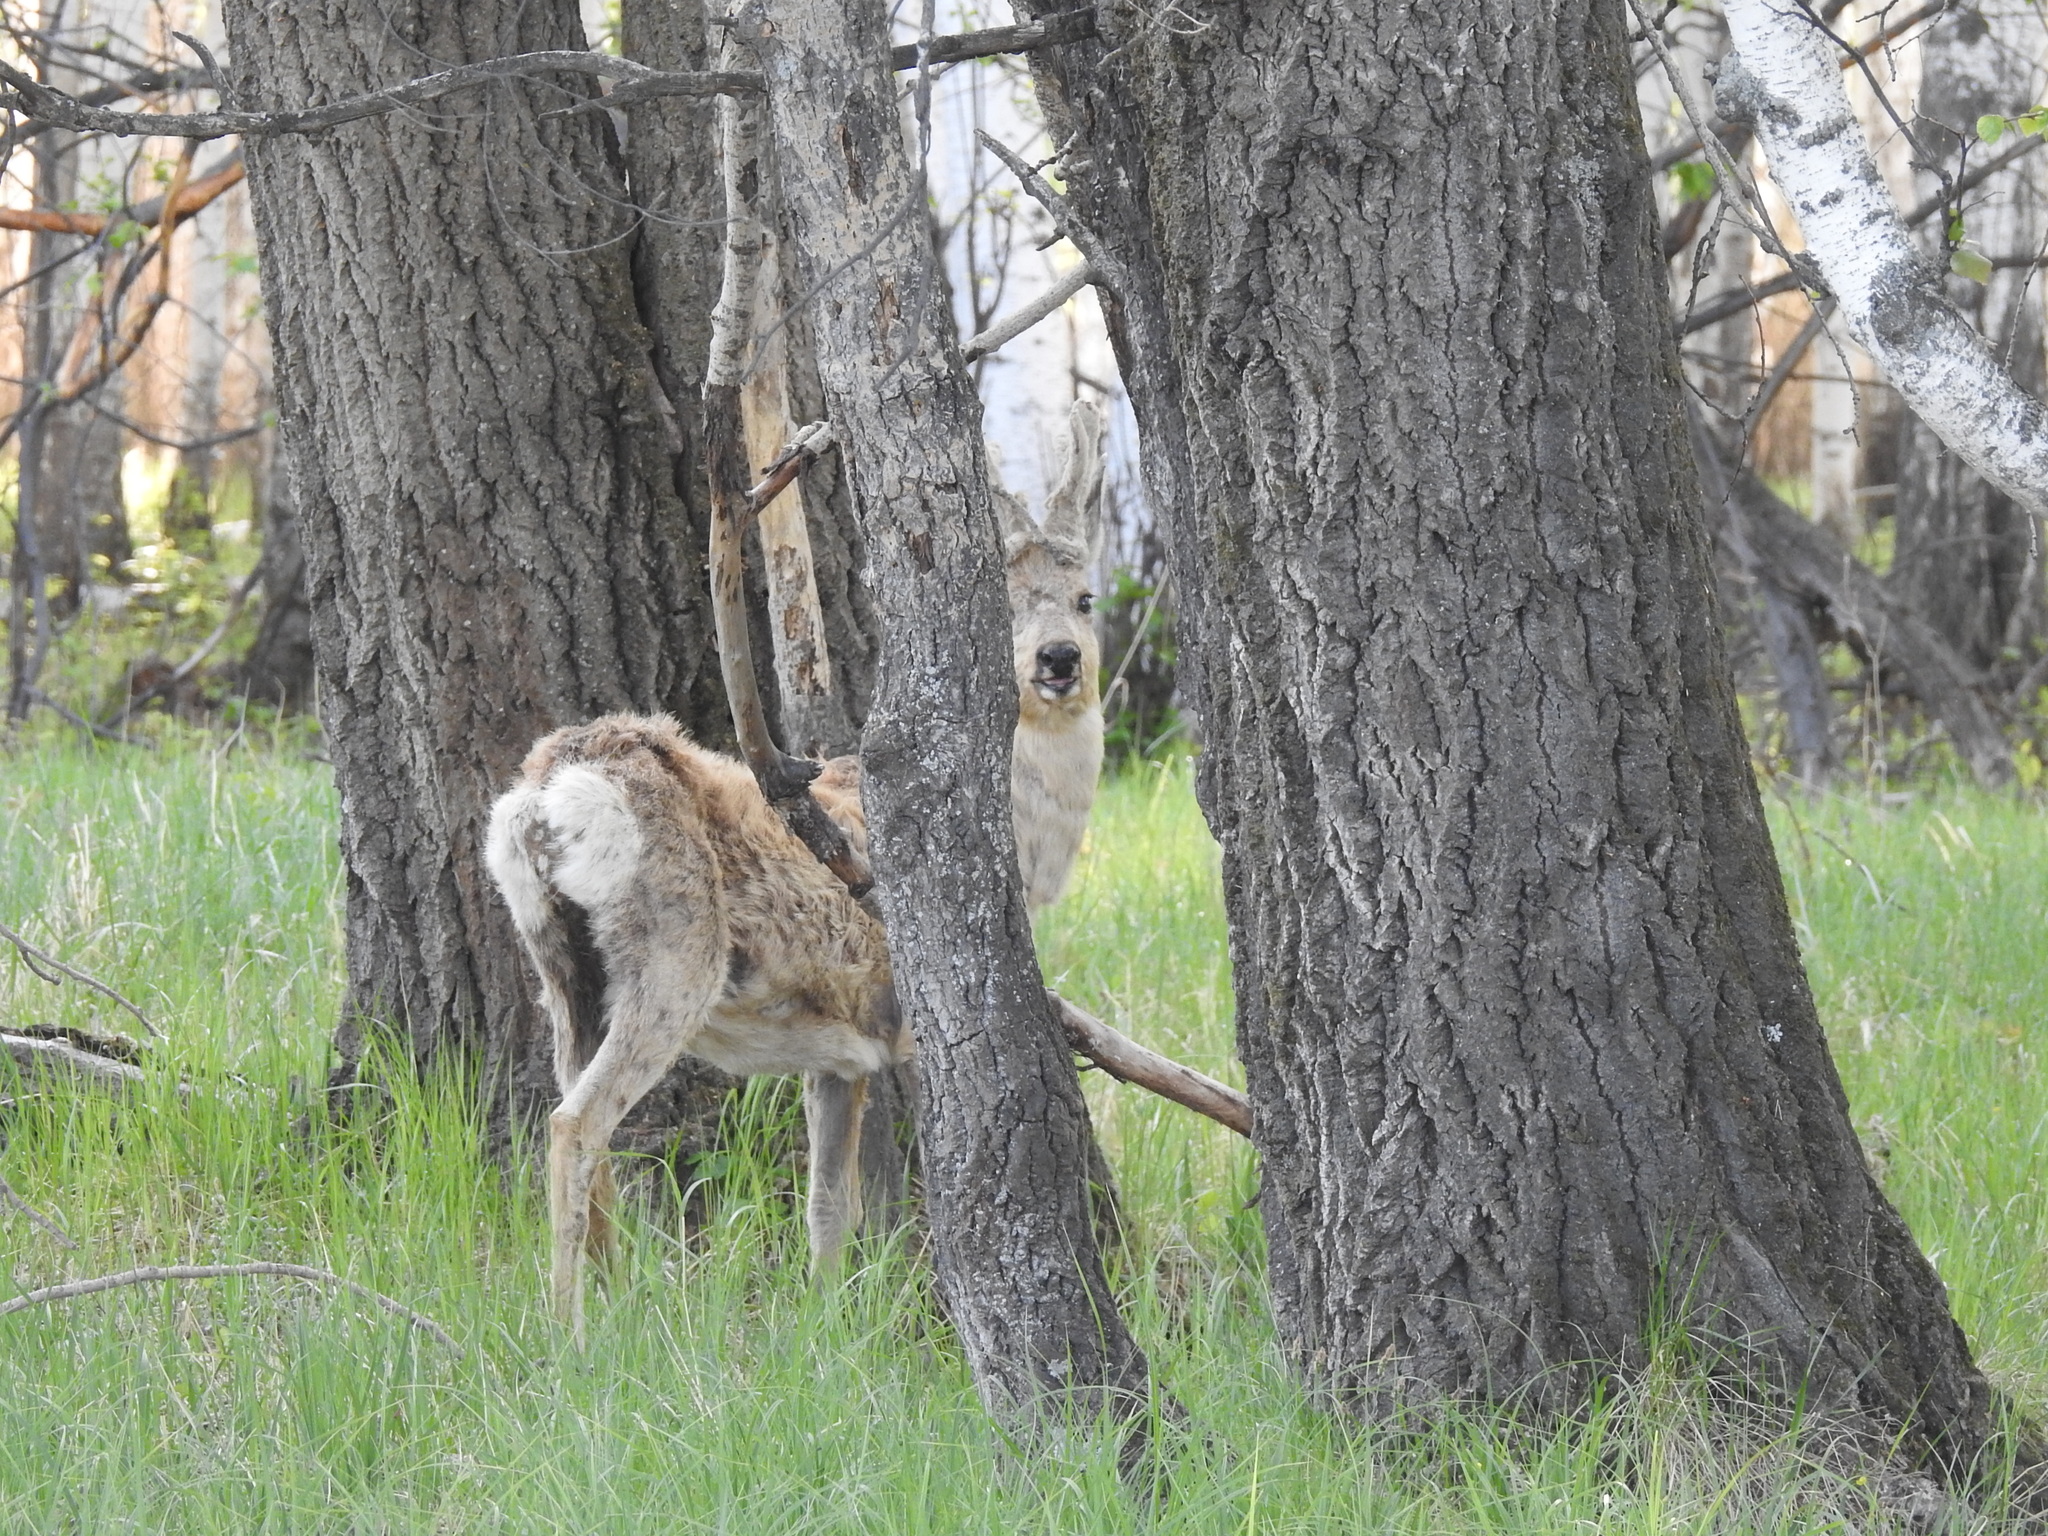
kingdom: Animalia
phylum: Chordata
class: Mammalia
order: Artiodactyla
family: Cervidae
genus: Capreolus
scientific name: Capreolus pygargus
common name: Siberian roe
